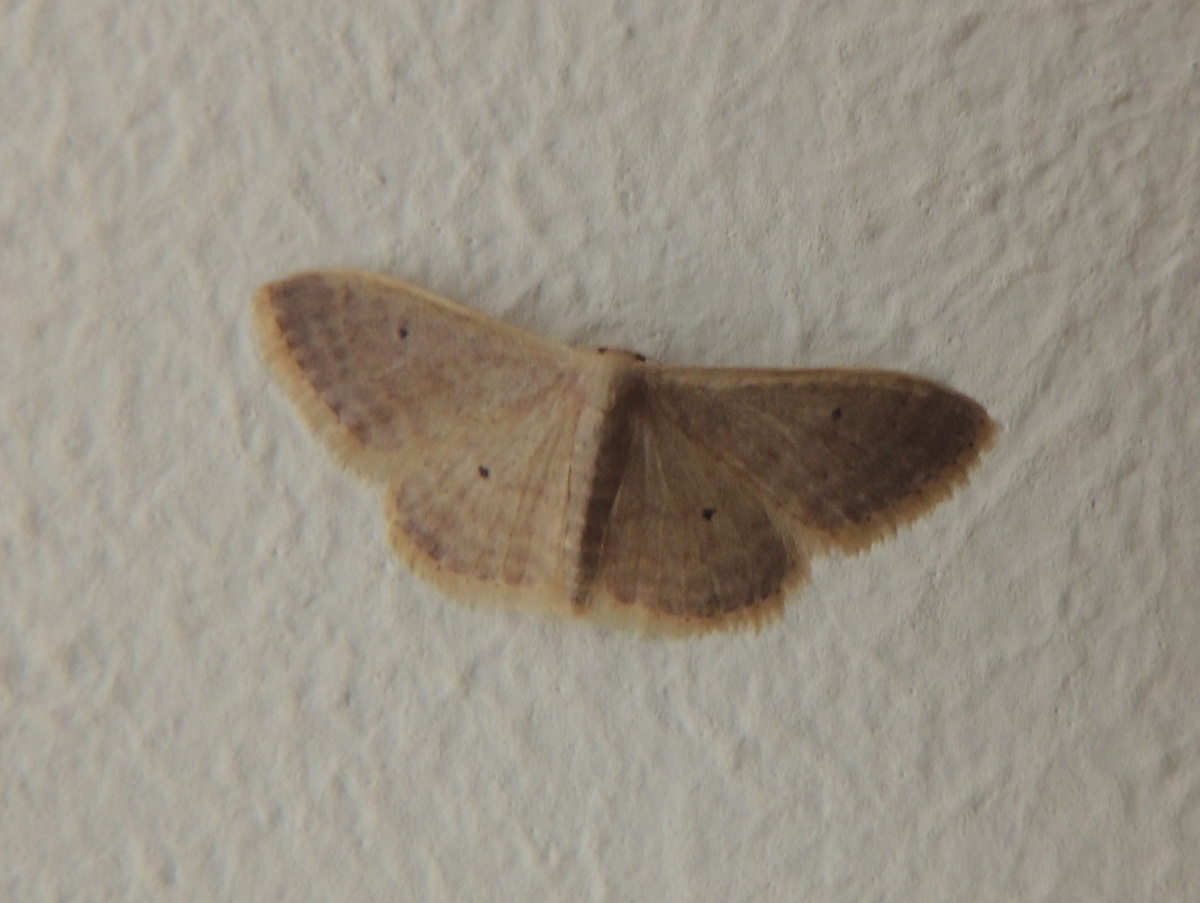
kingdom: Animalia
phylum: Arthropoda
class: Insecta
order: Lepidoptera
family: Geometridae
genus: Idaea
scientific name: Idaea distinctaria
